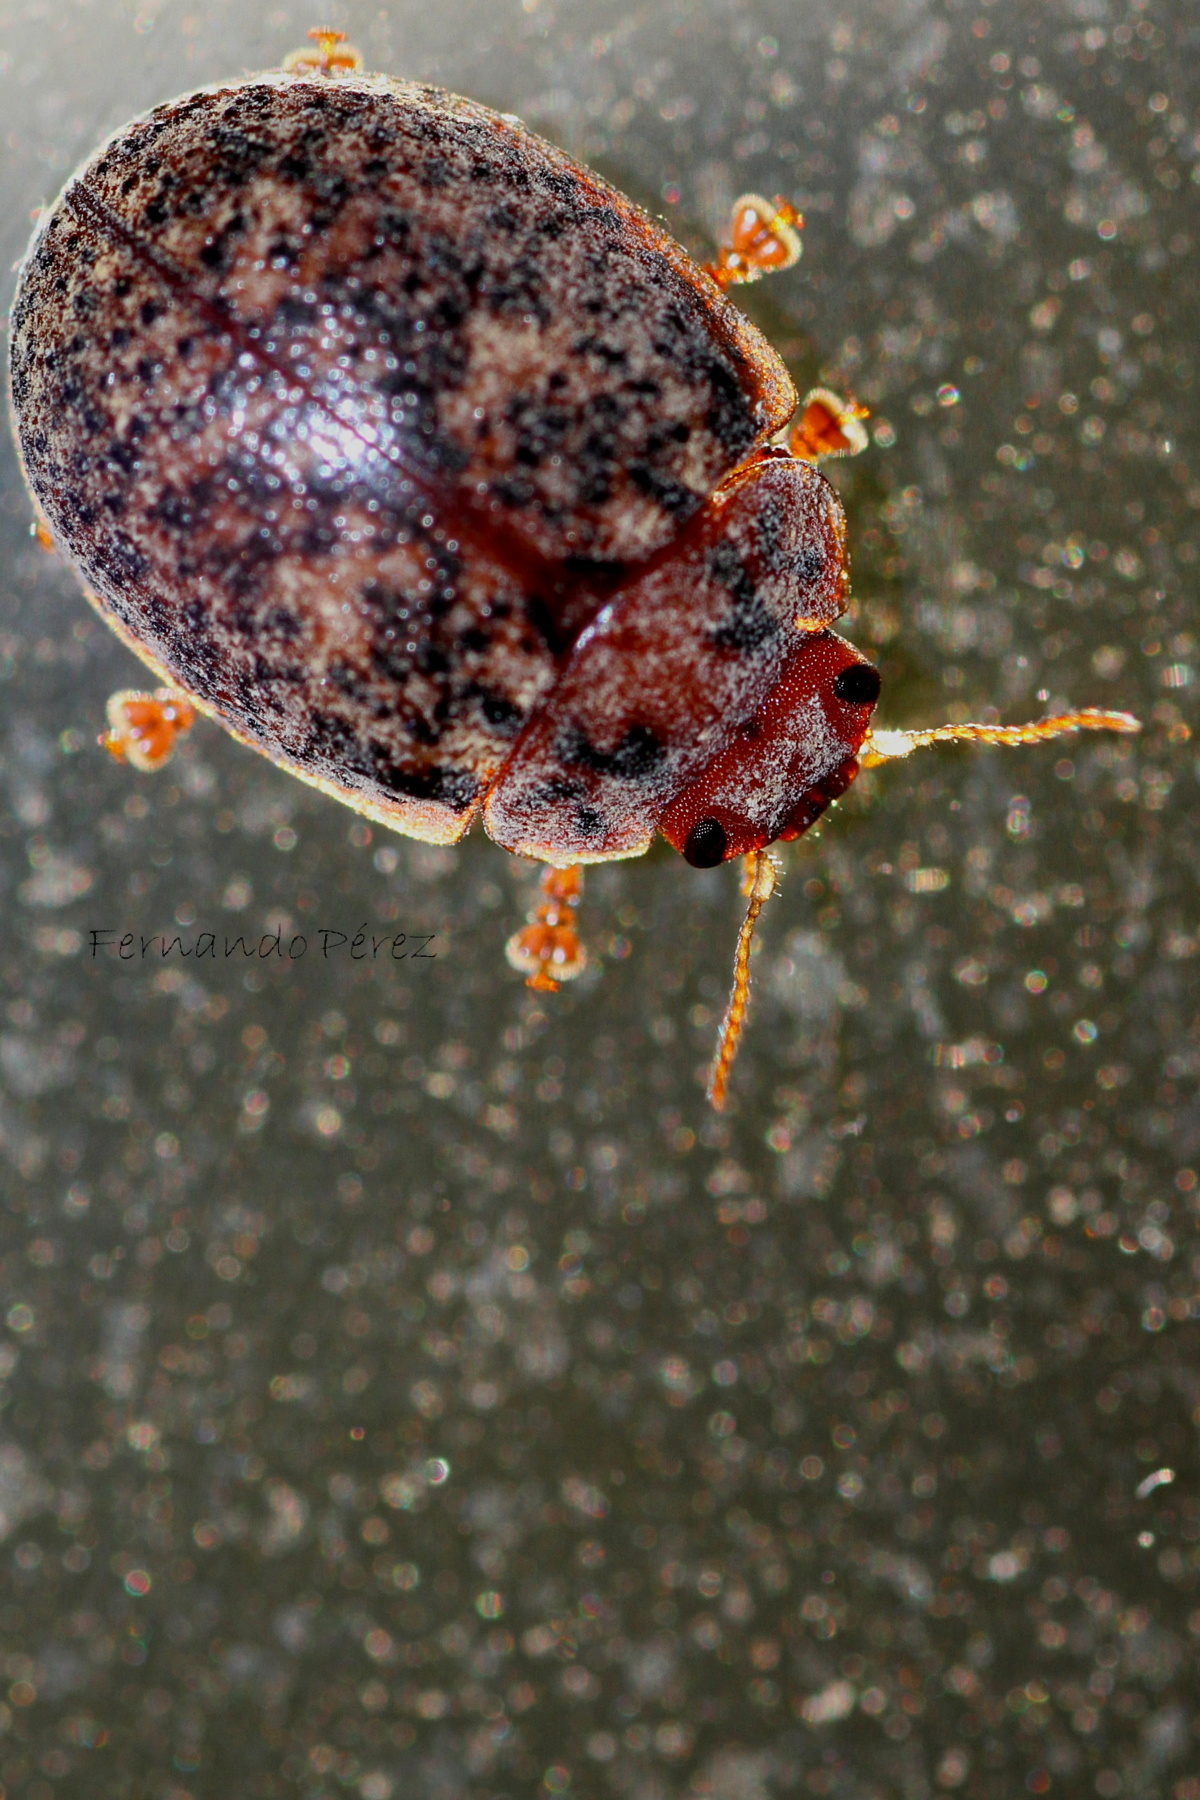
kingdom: Animalia
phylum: Arthropoda
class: Insecta
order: Coleoptera
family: Chrysomelidae
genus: Trachymela
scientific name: Trachymela sloanei
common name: Australian tortoise beetle
